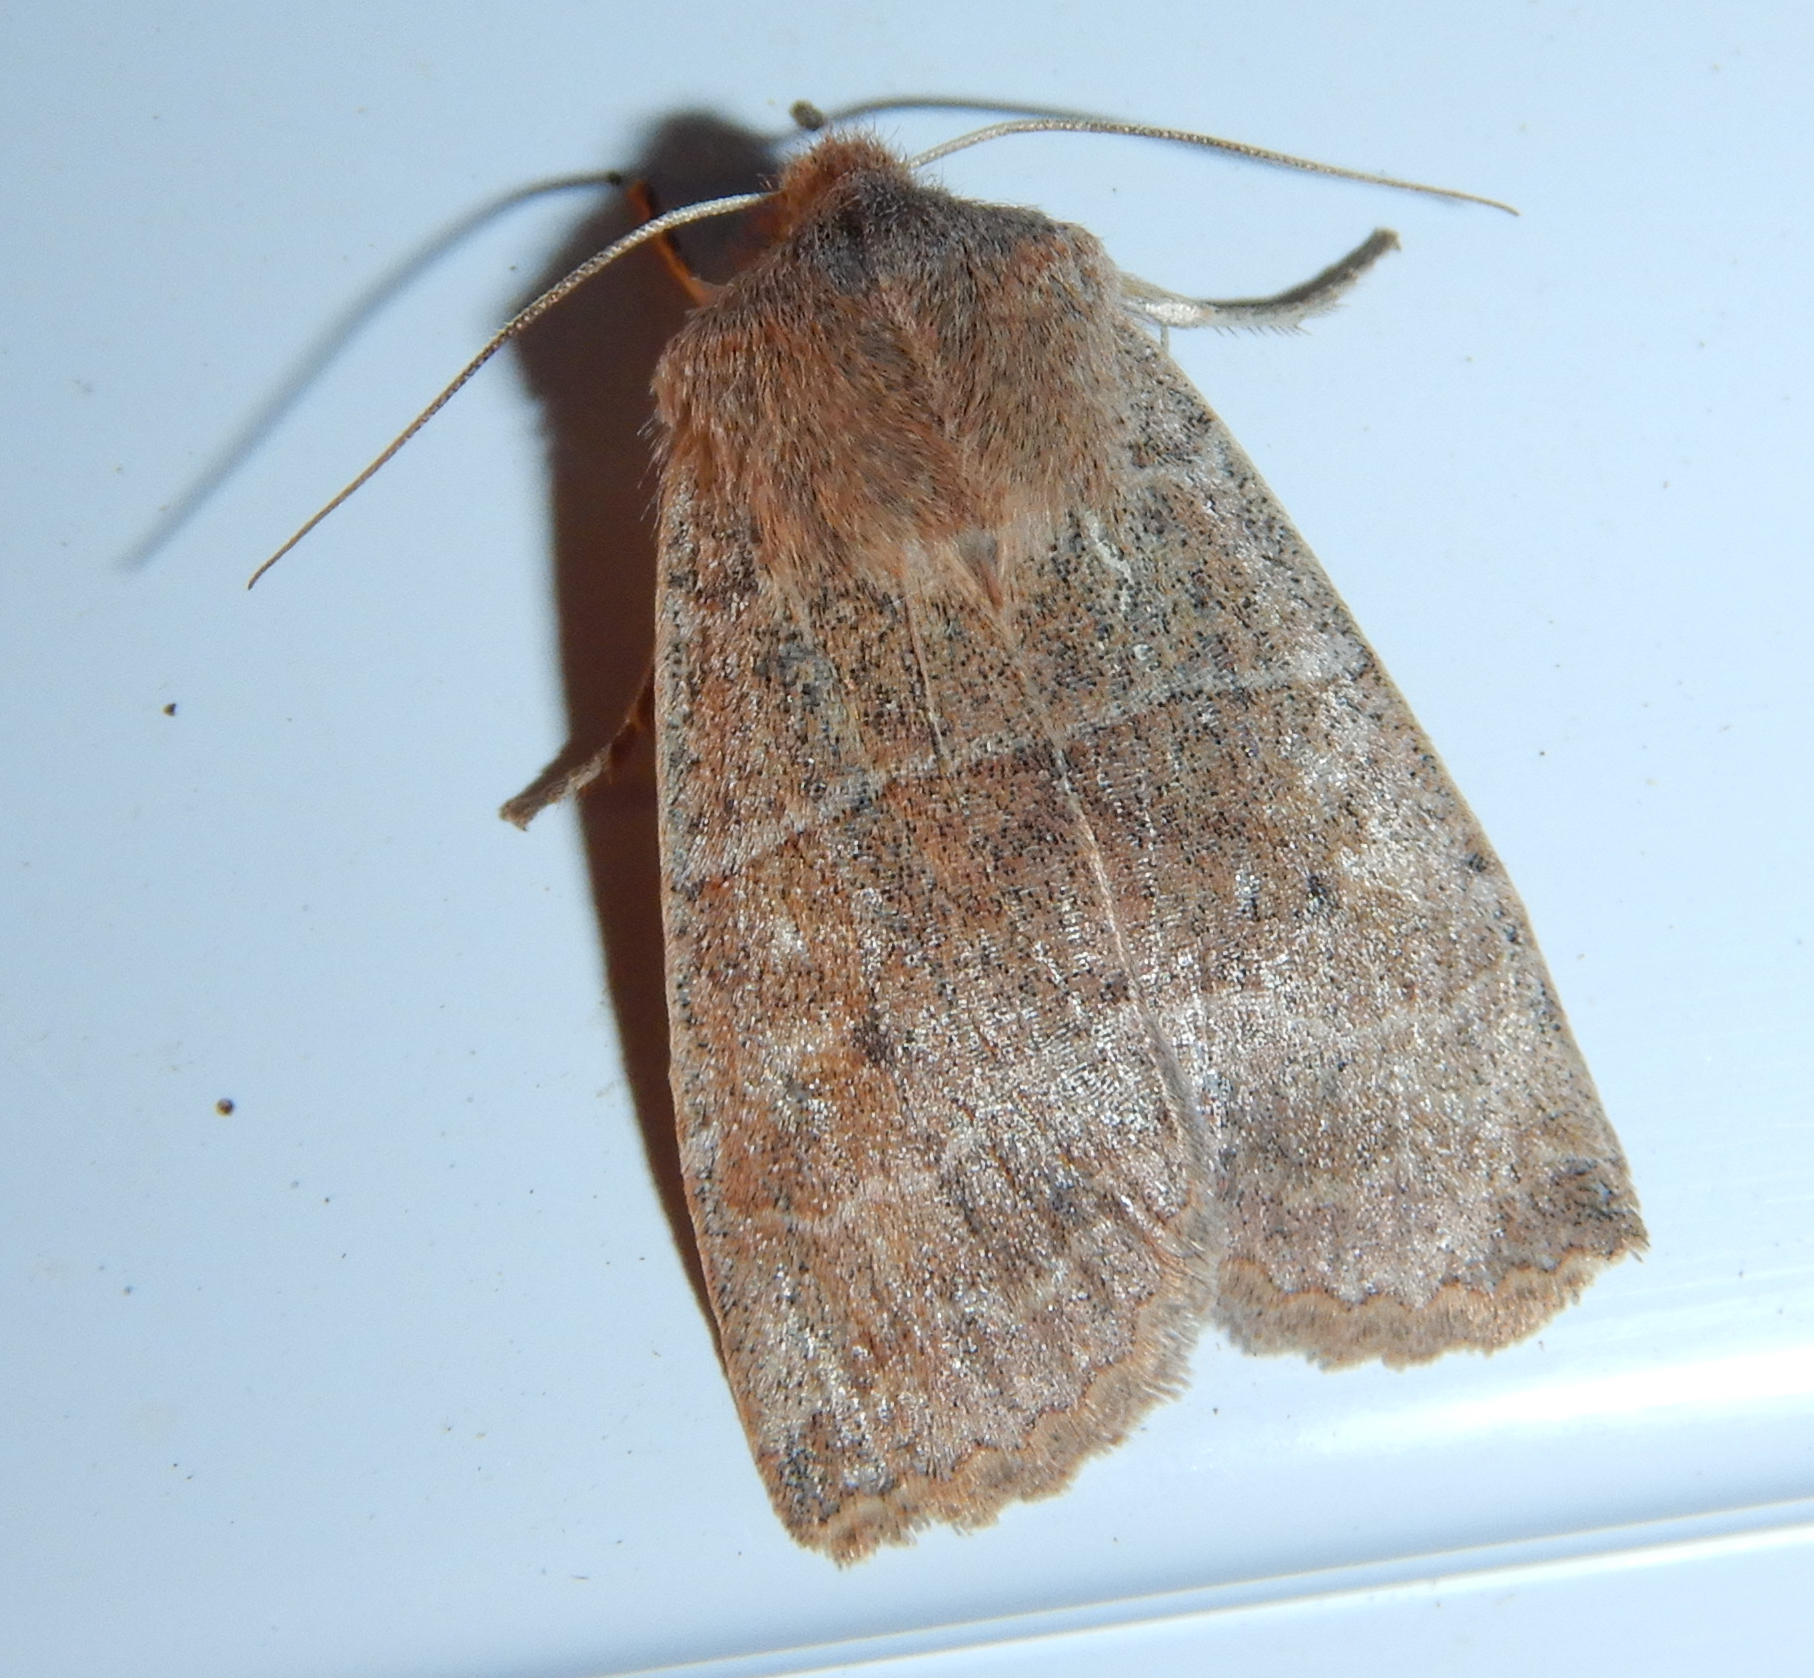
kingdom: Animalia
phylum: Arthropoda
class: Insecta
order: Lepidoptera
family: Noctuidae
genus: Eupsilia
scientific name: Eupsilia morrisoni
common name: Morrison's sallow
